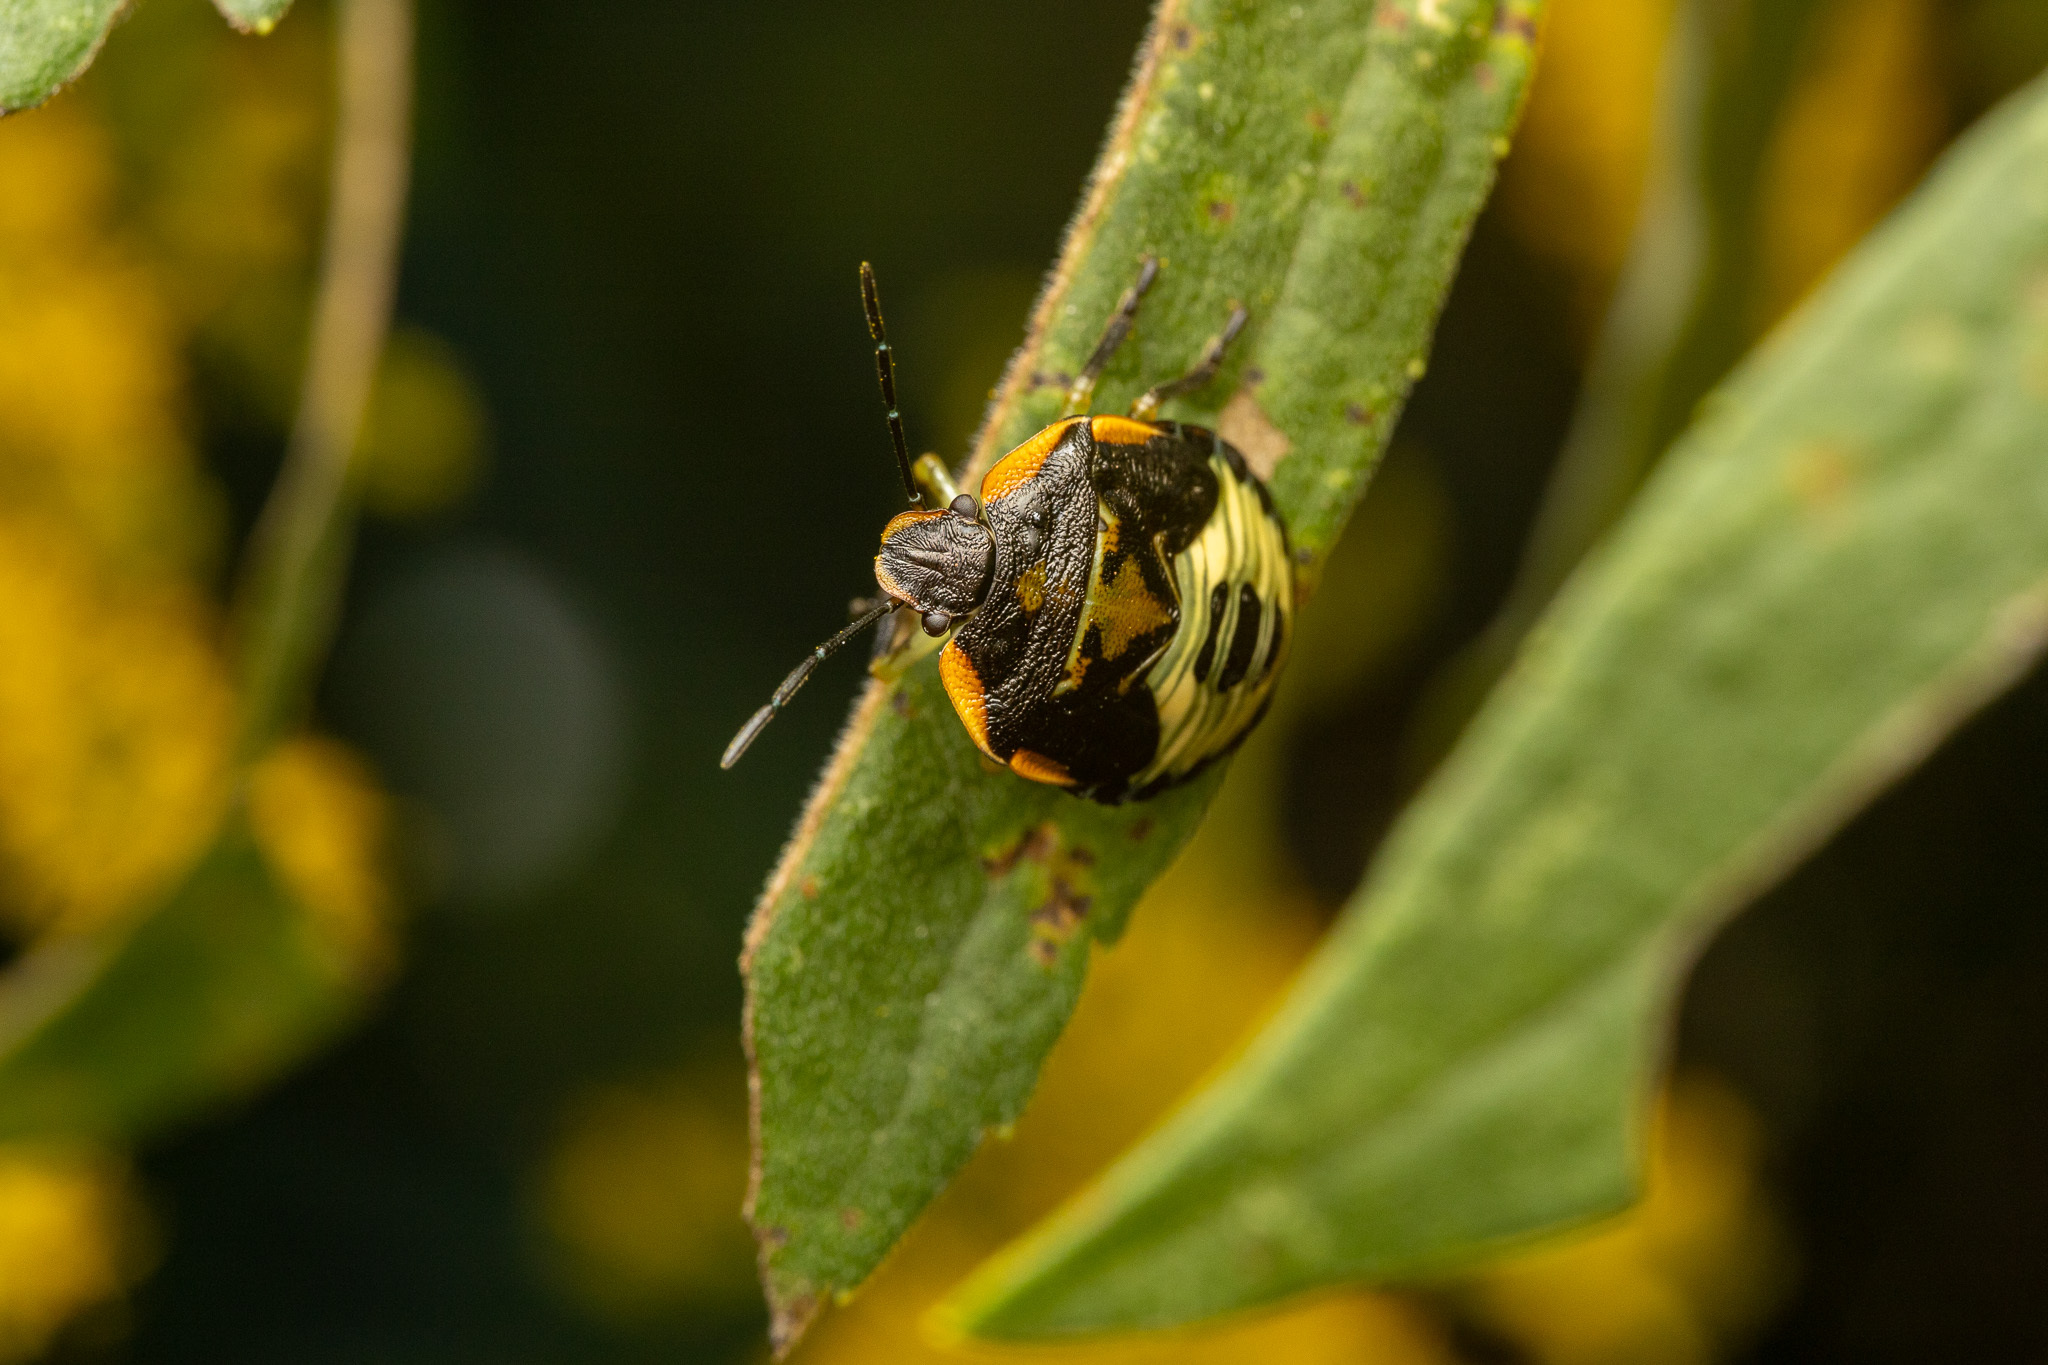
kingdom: Animalia
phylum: Arthropoda
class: Insecta
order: Hemiptera
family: Pentatomidae
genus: Chinavia
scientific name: Chinavia hilaris
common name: Green stink bug
